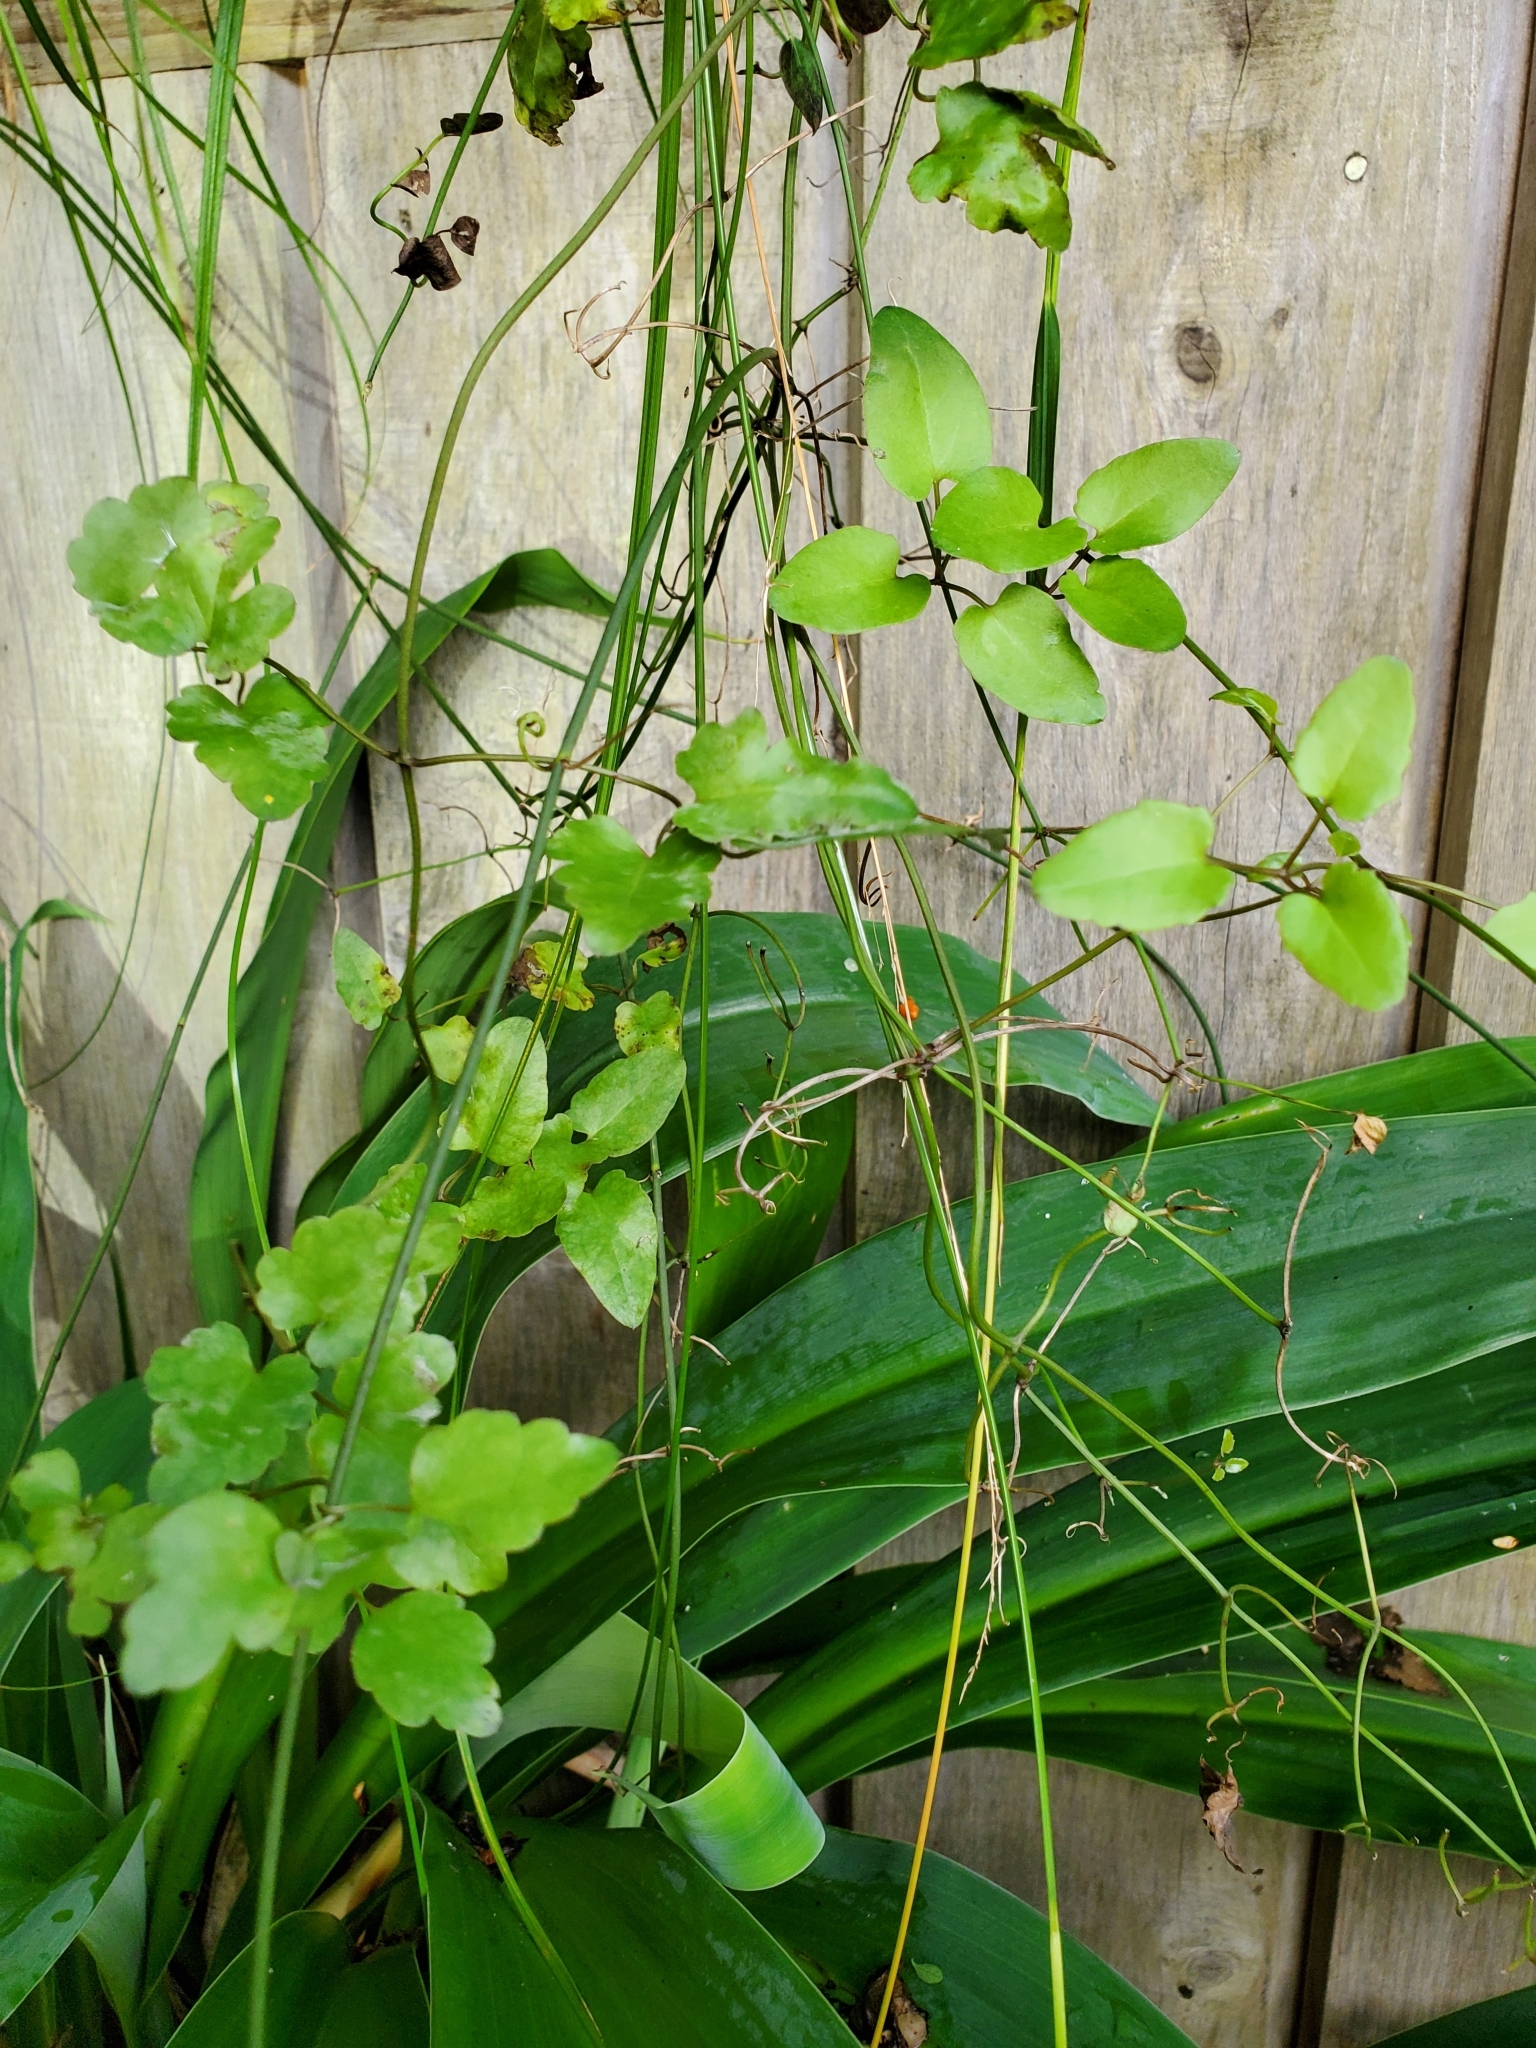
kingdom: Plantae
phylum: Tracheophyta
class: Magnoliopsida
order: Ranunculales
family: Ranunculaceae
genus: Clematis
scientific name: Clematis forsteri
